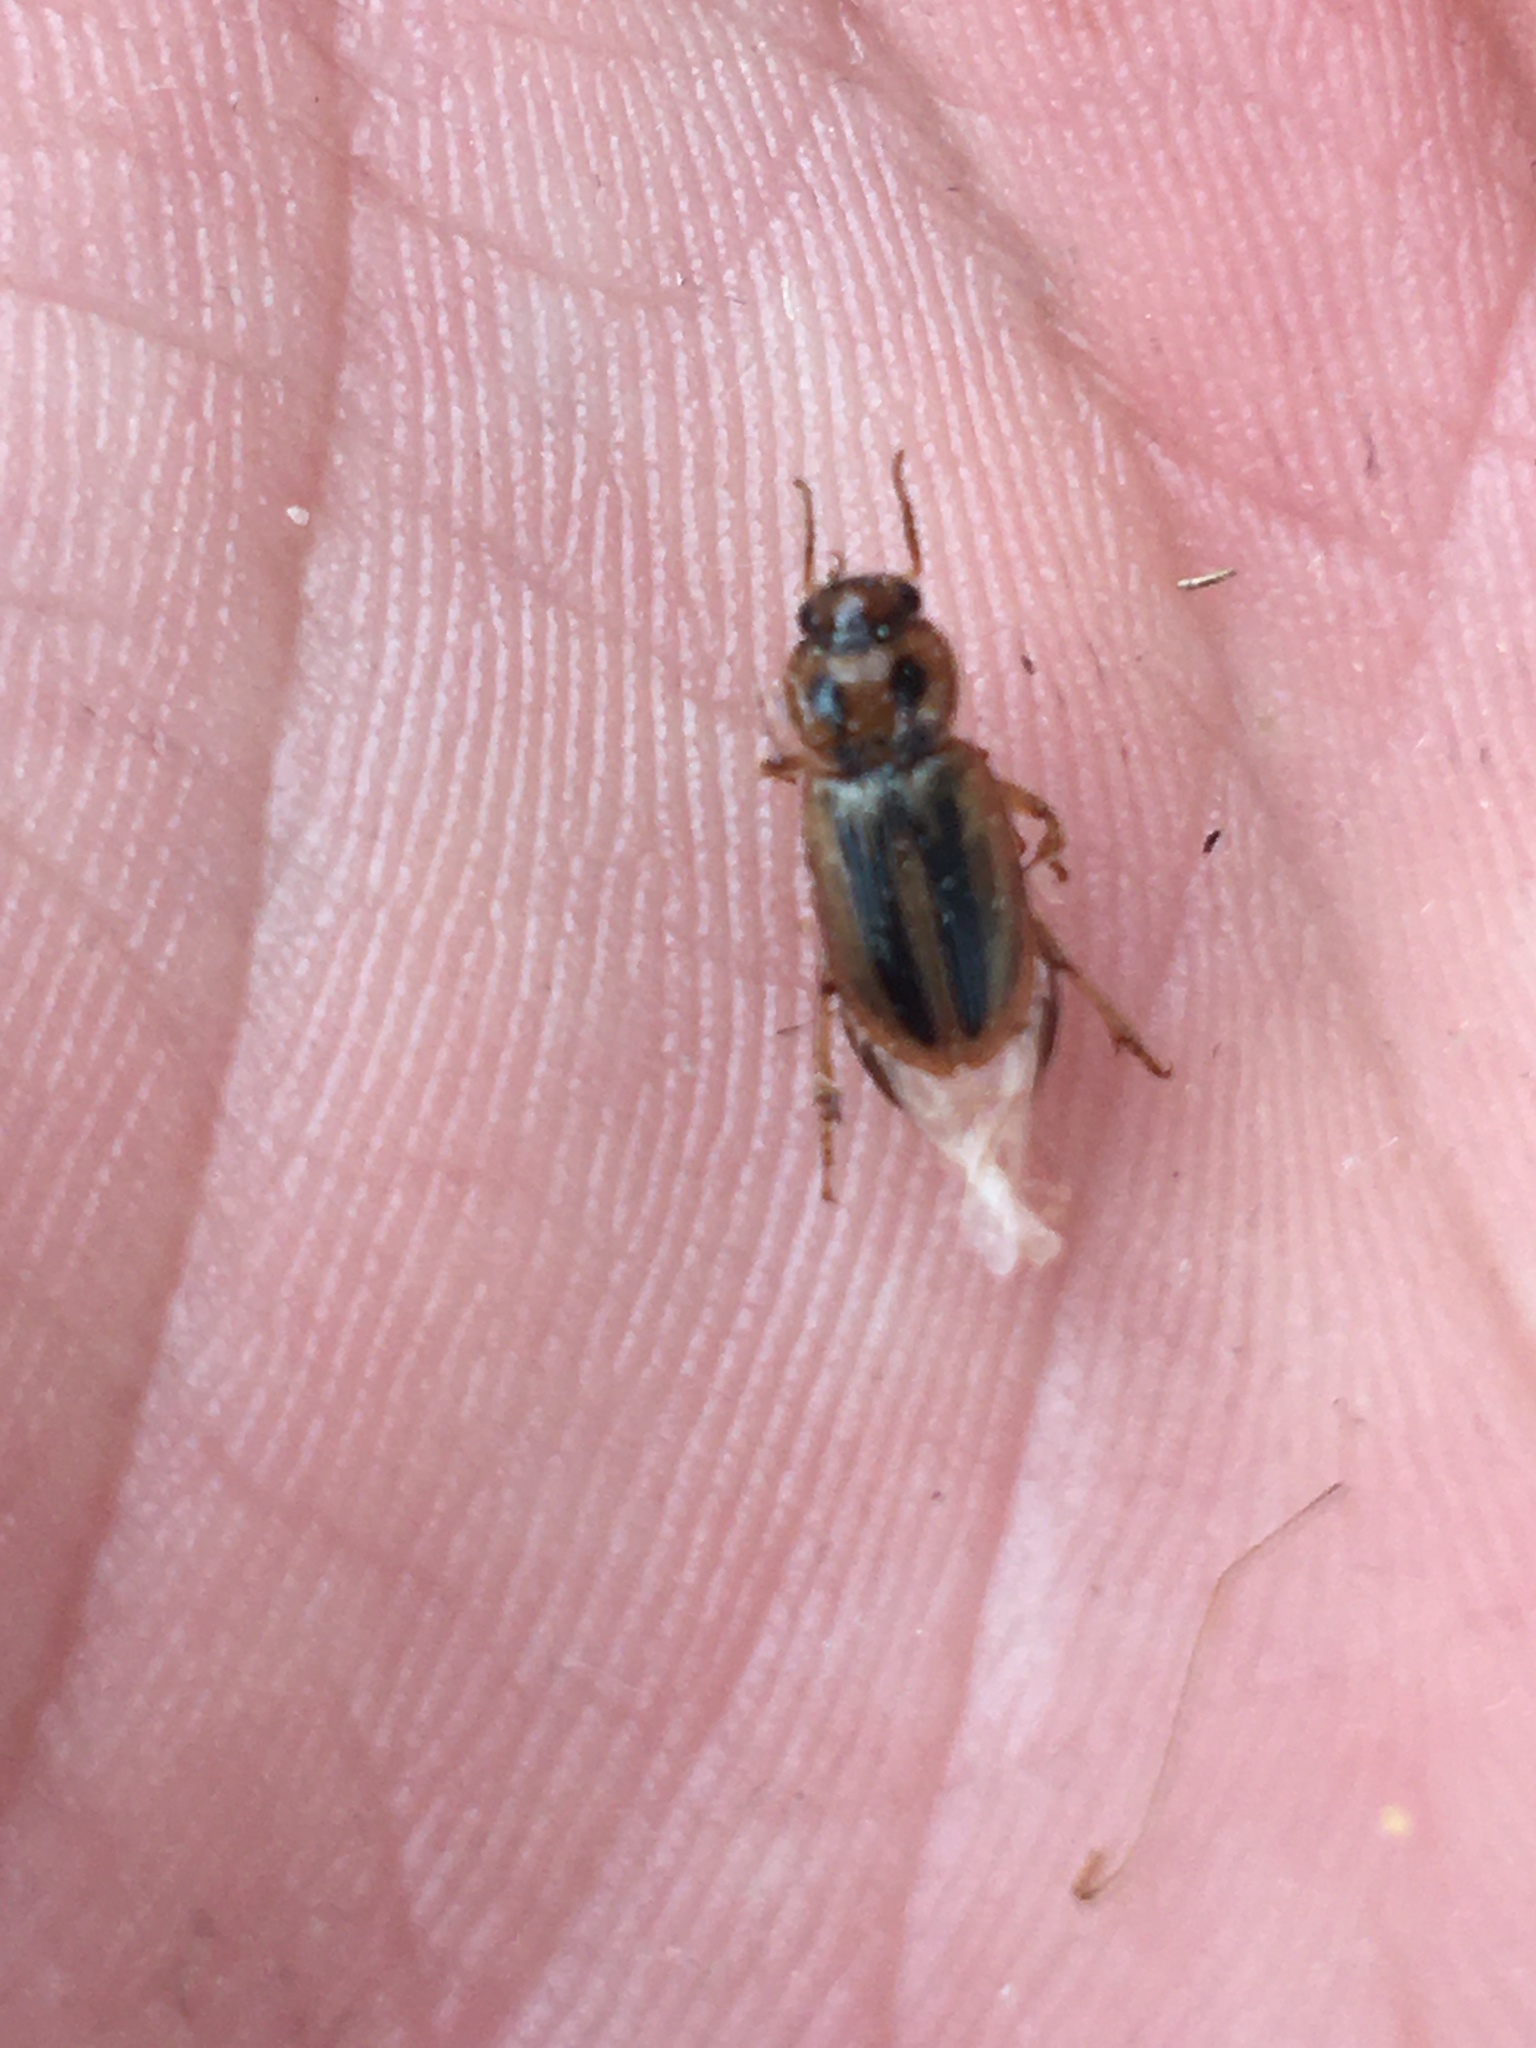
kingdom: Animalia
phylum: Arthropoda
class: Insecta
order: Coleoptera
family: Carabidae
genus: Stenolophus
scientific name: Stenolophus lineola
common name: Lined stenolophus
